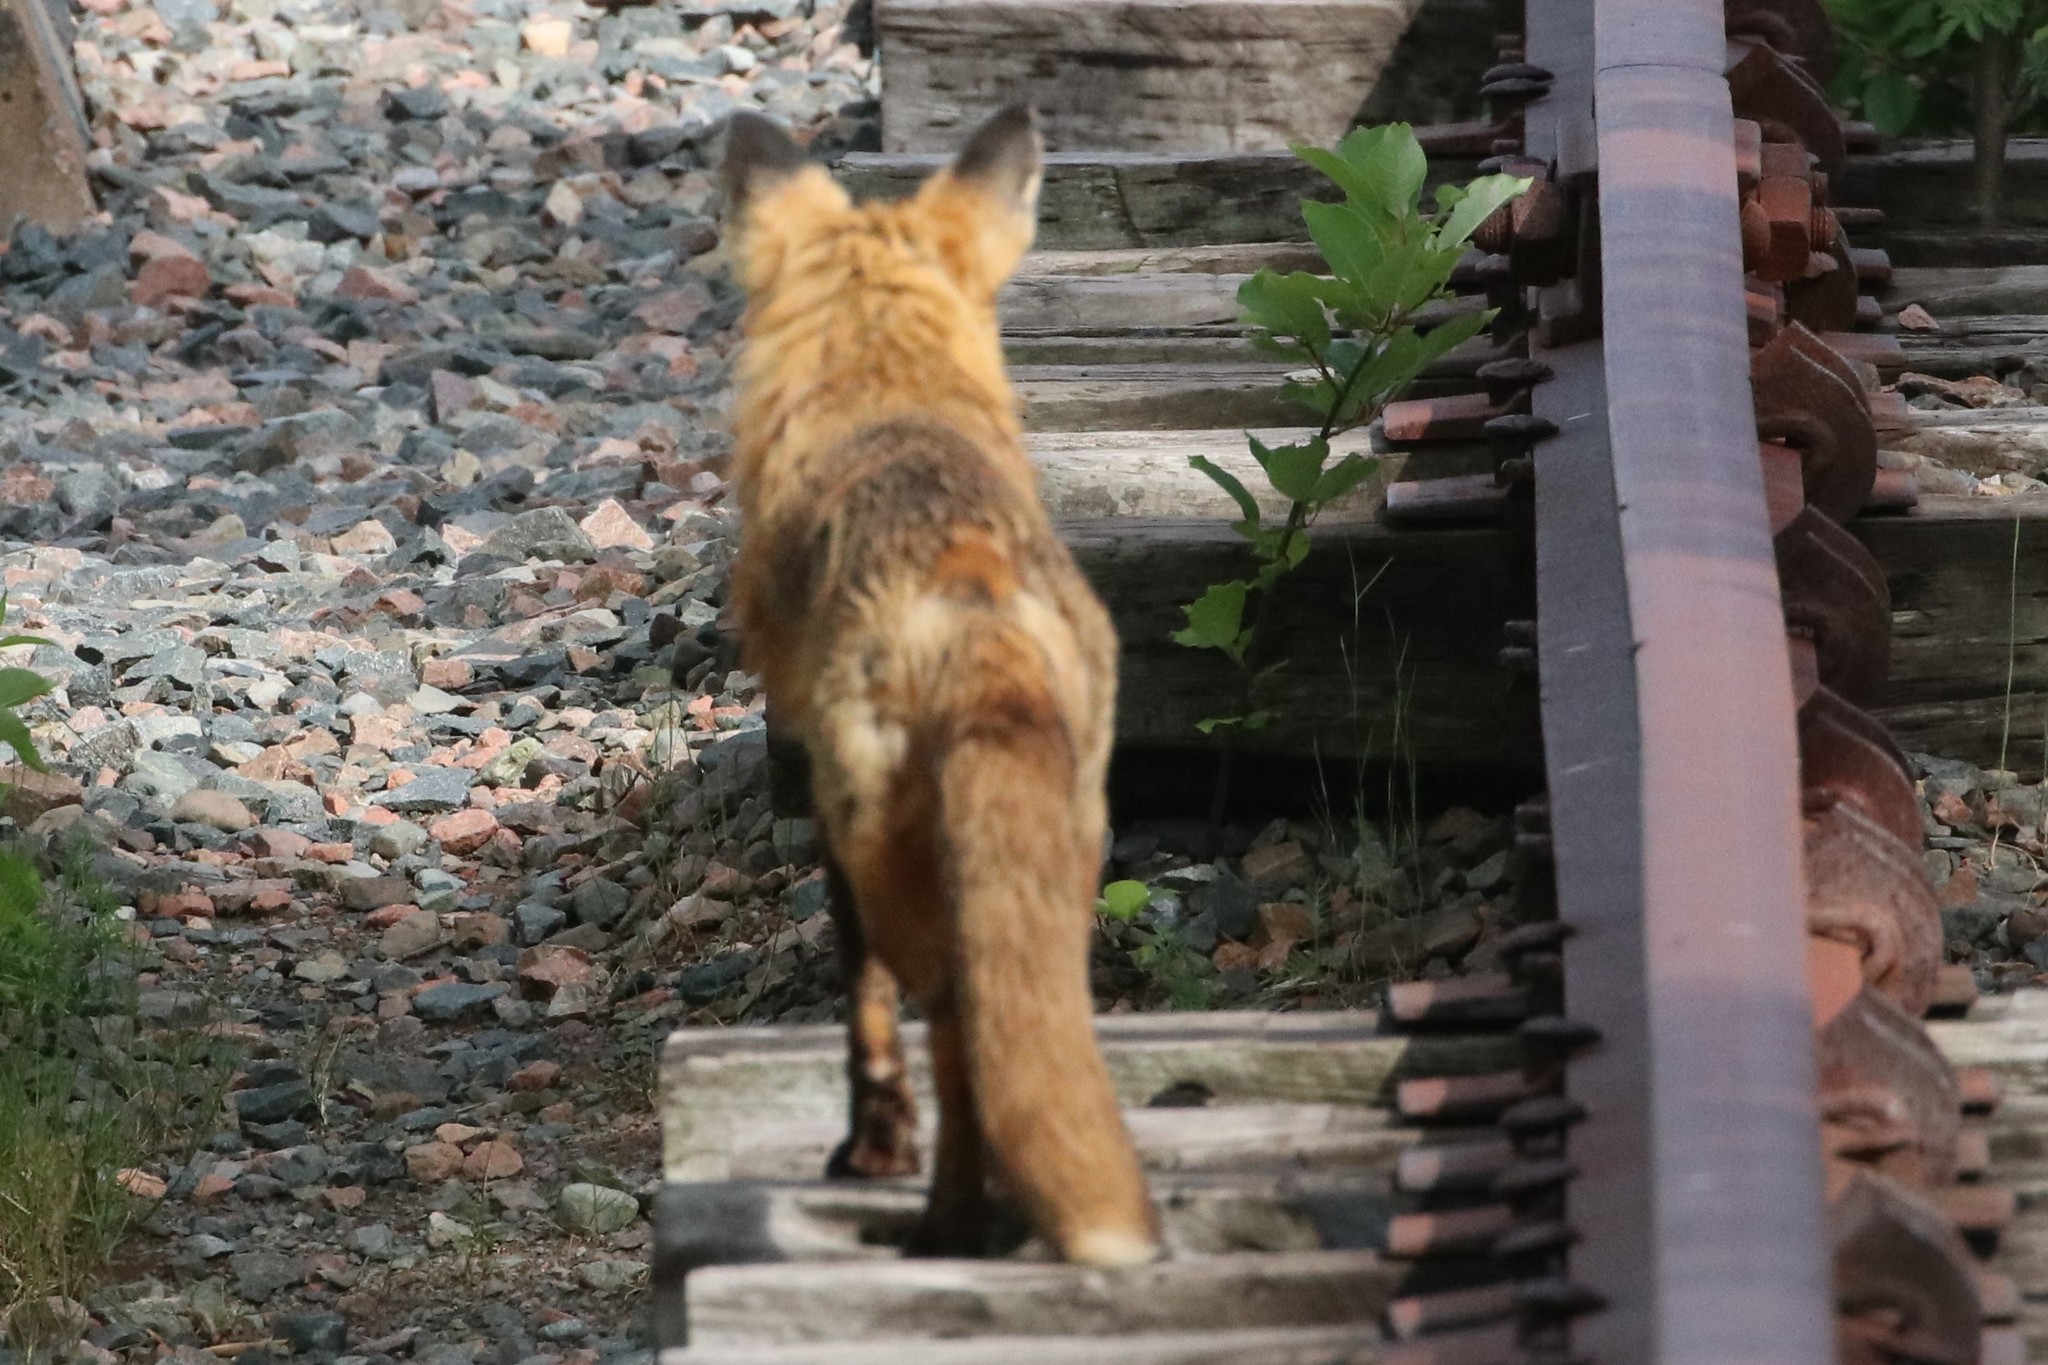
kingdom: Animalia
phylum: Chordata
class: Mammalia
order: Carnivora
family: Canidae
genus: Vulpes
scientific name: Vulpes vulpes
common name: Red fox
